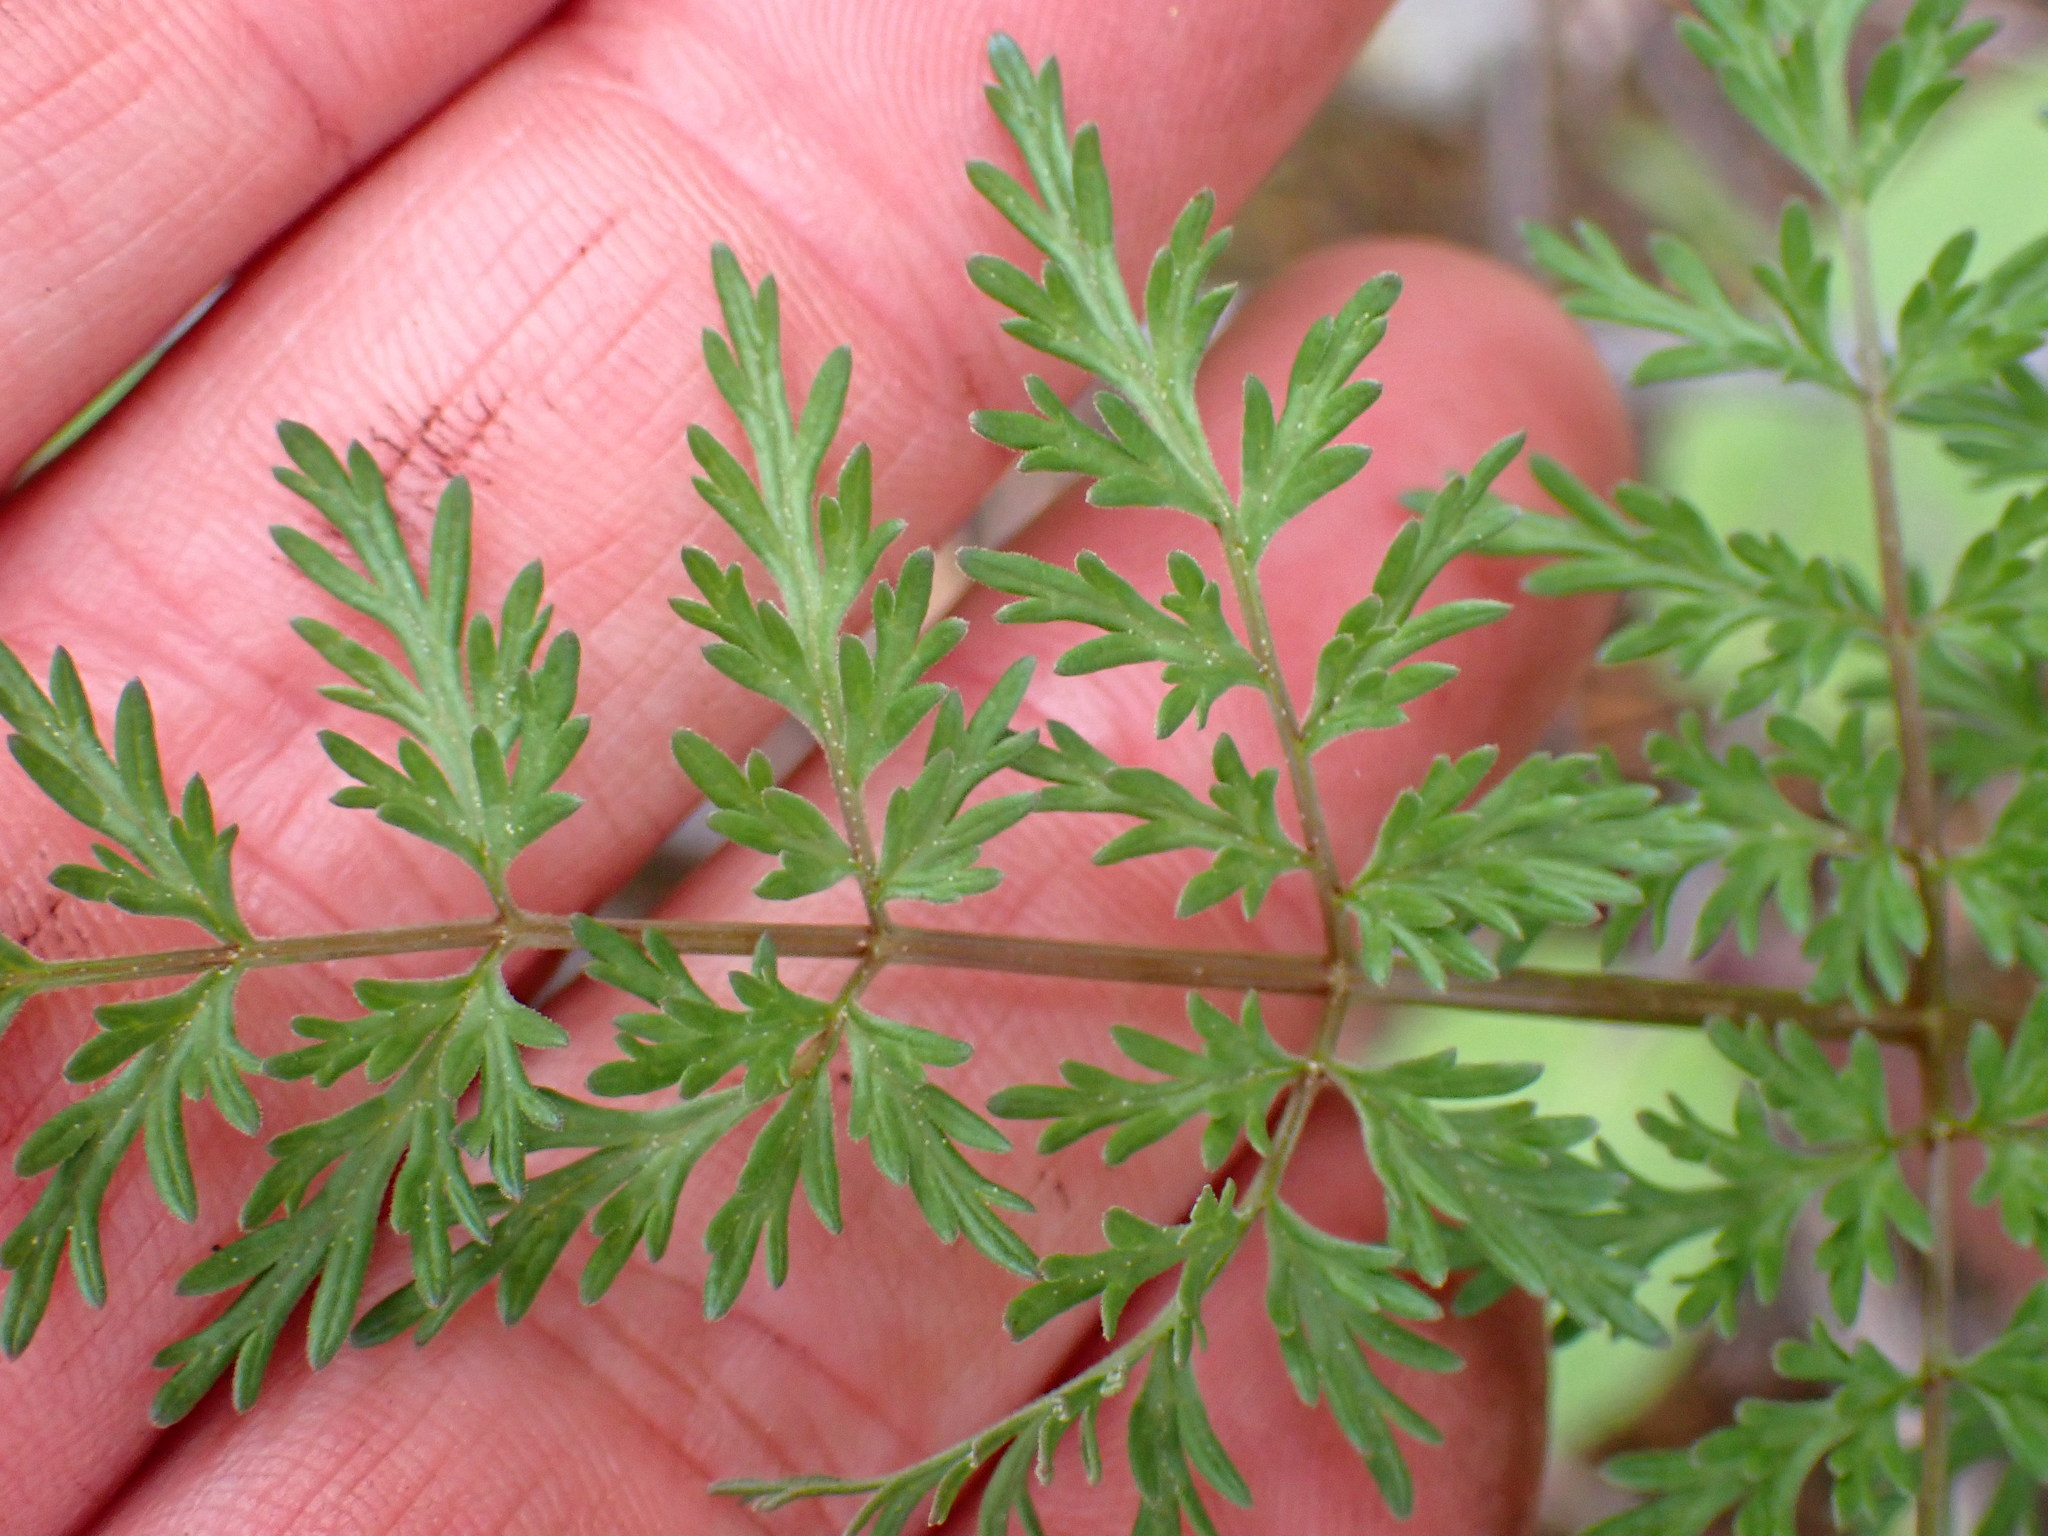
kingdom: Plantae
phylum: Tracheophyta
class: Magnoliopsida
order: Apiales
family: Apiaceae
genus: Lomatium
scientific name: Lomatium multifidum
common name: Carrot-leaved biscuitroot
